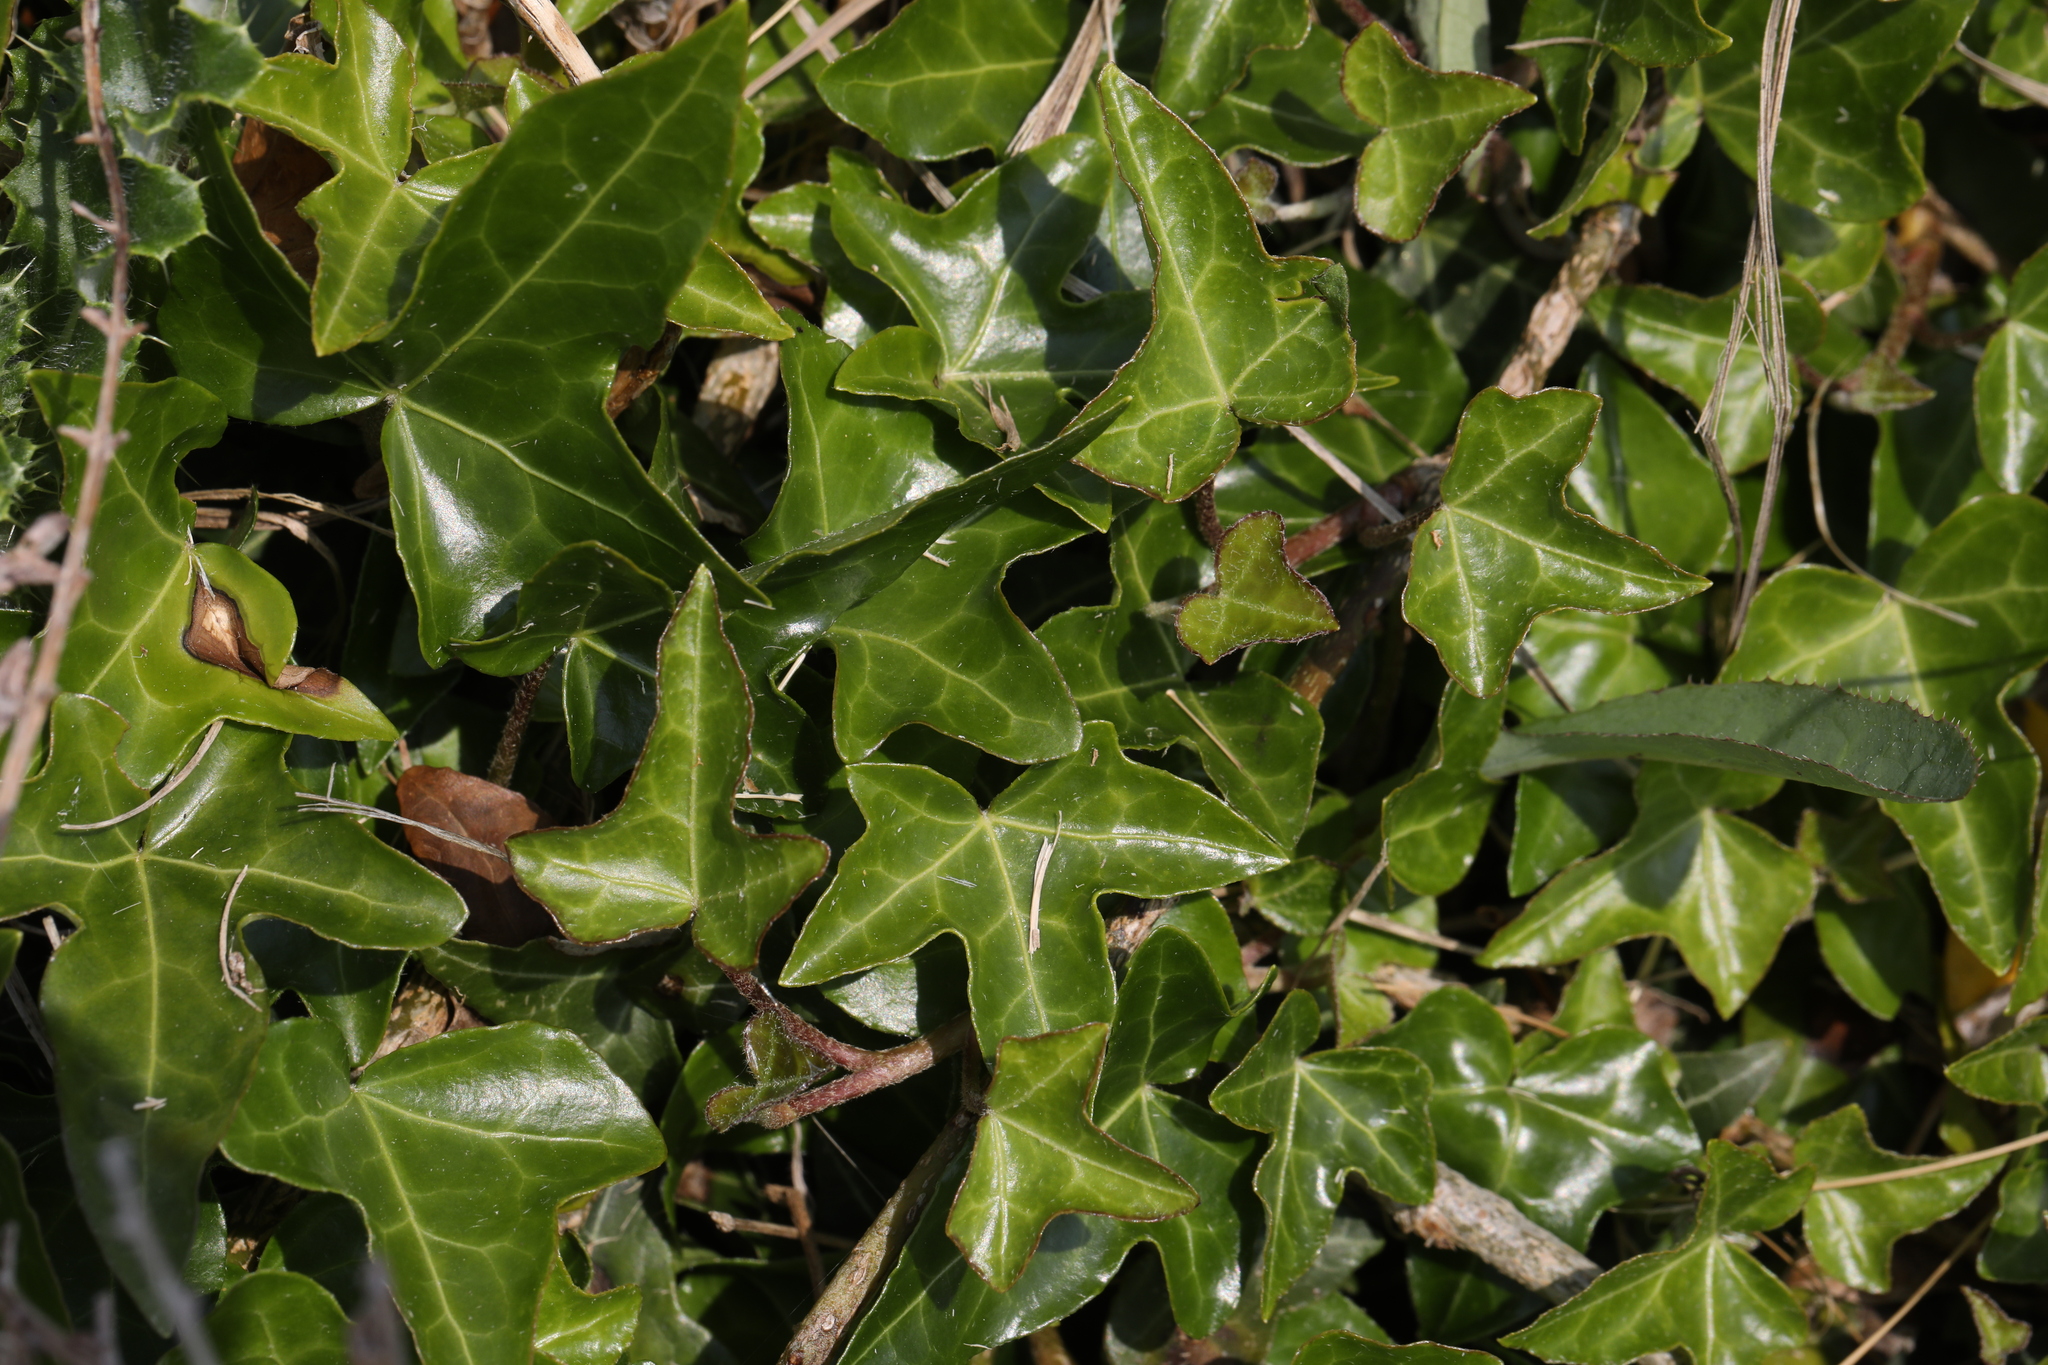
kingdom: Plantae
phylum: Tracheophyta
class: Magnoliopsida
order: Apiales
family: Araliaceae
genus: Hedera
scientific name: Hedera helix
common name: Ivy
